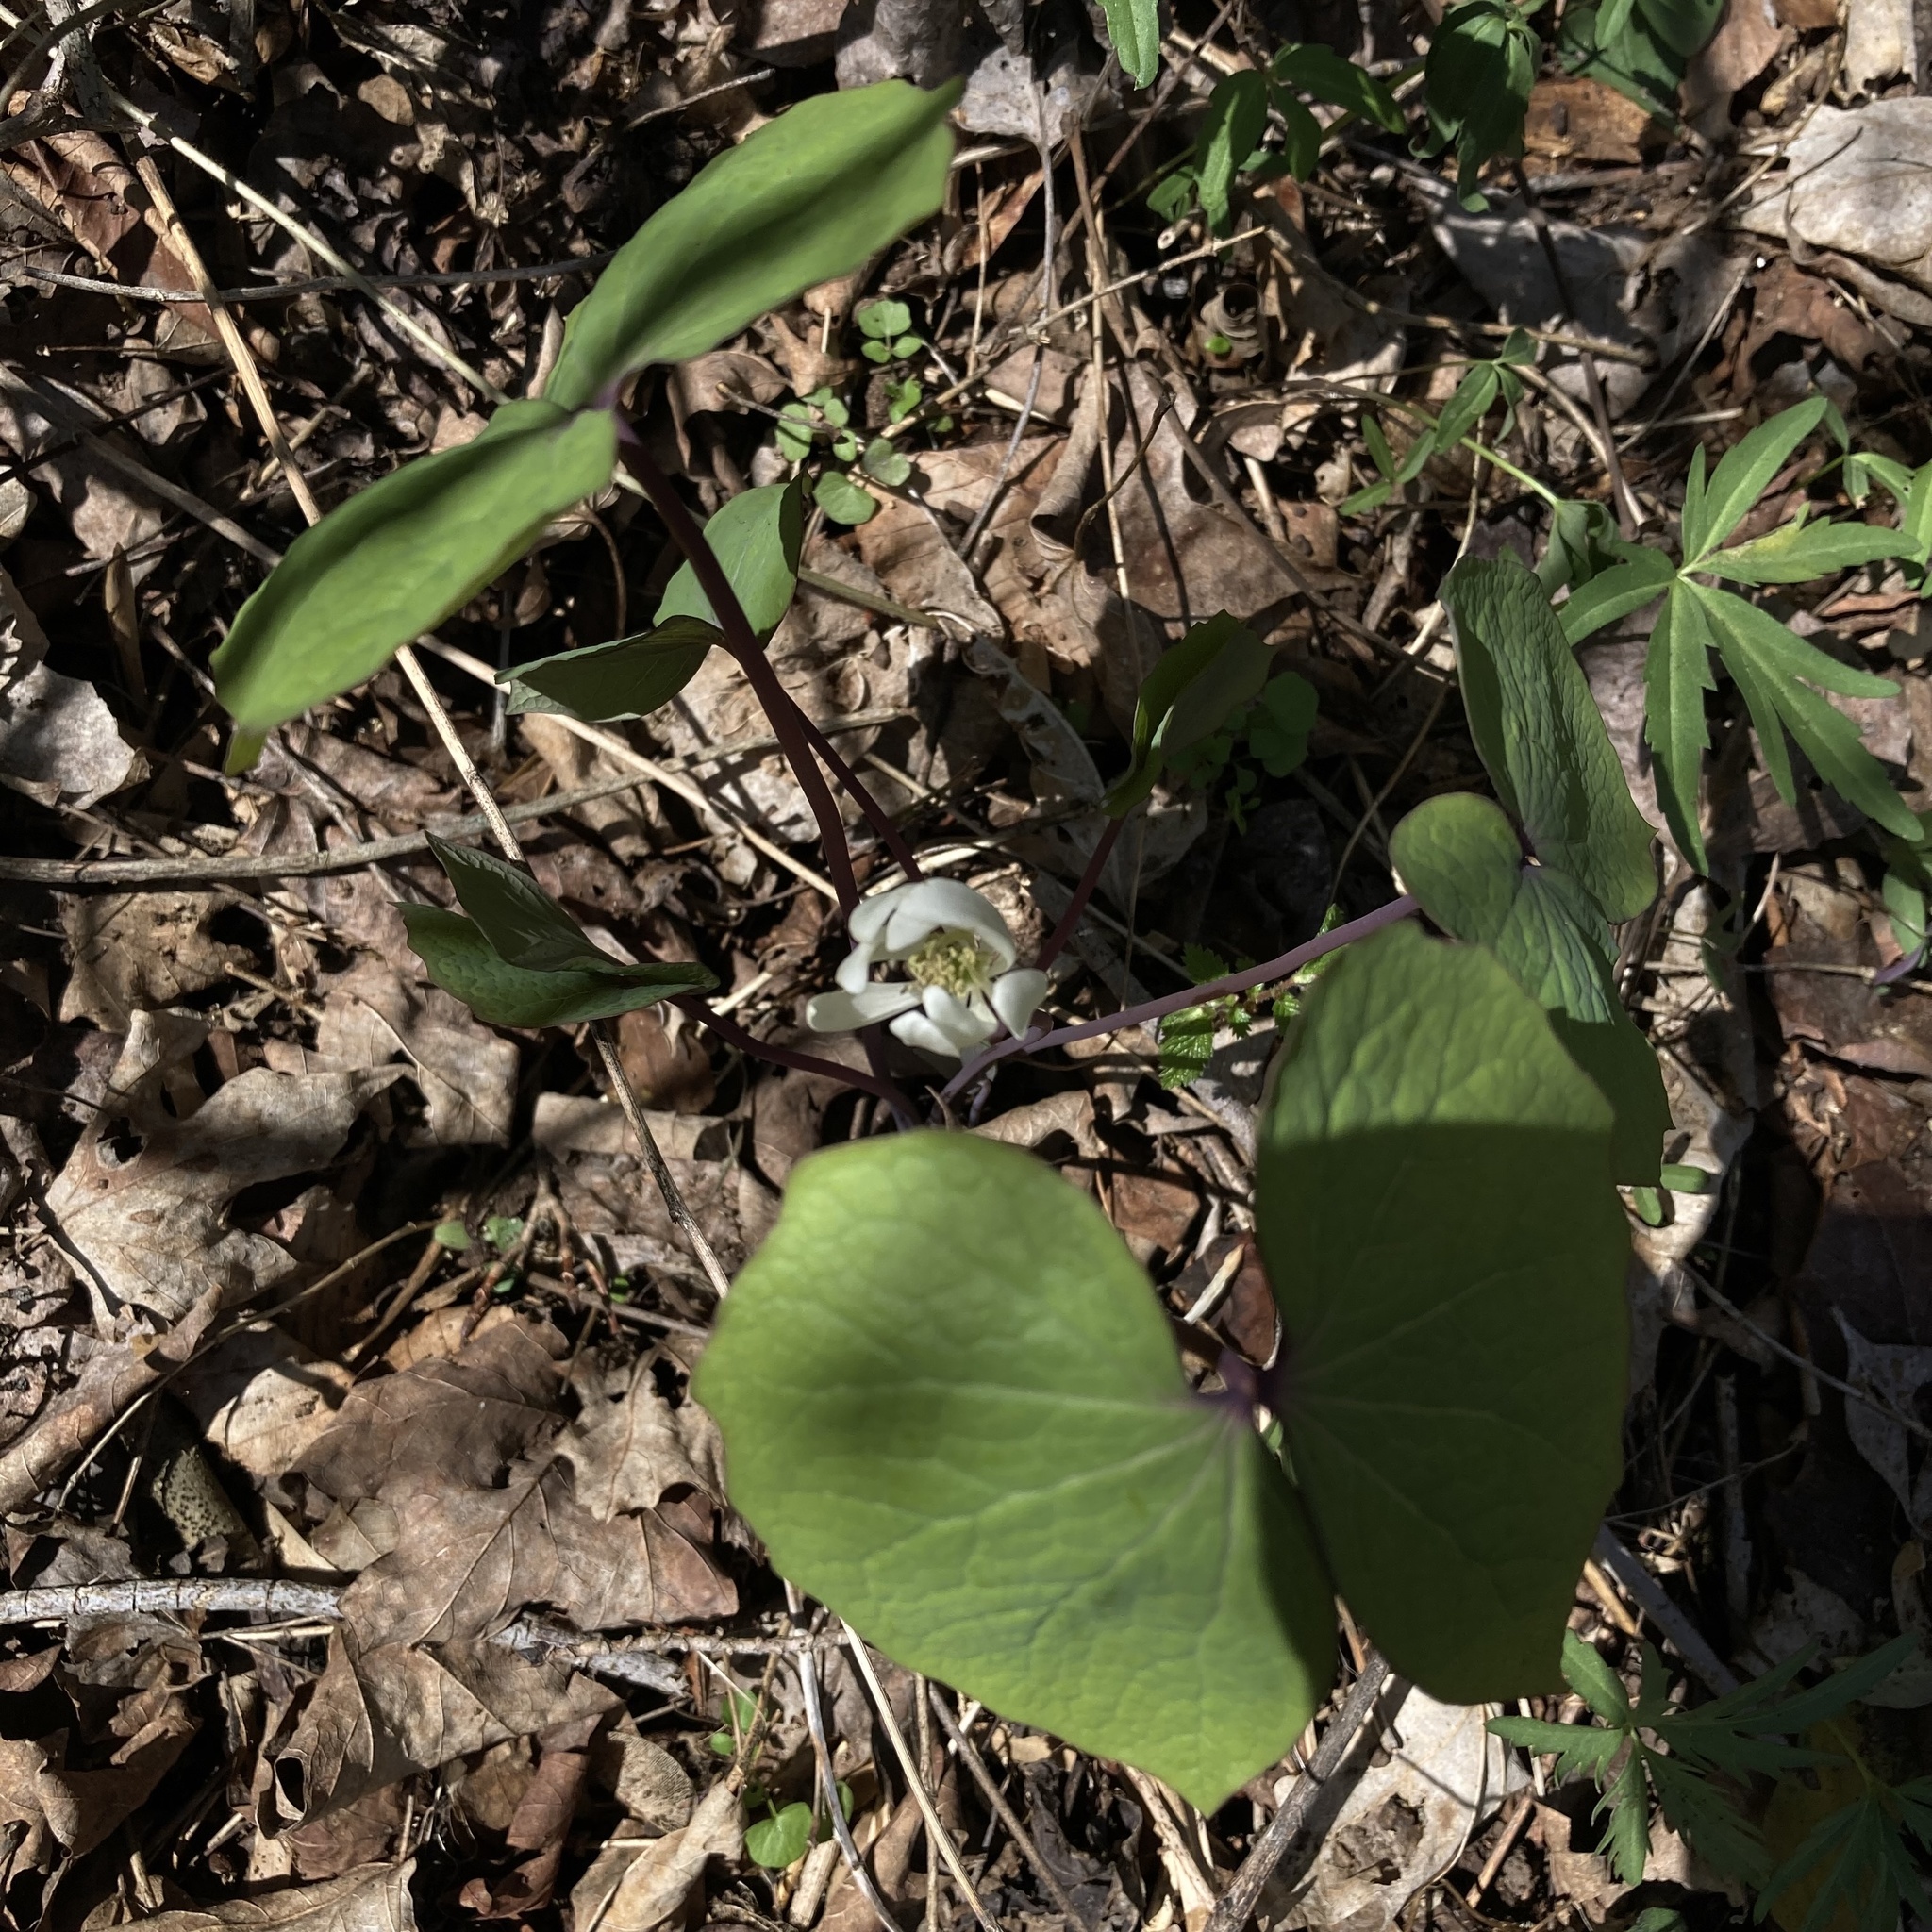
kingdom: Plantae
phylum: Tracheophyta
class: Magnoliopsida
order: Ranunculales
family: Berberidaceae
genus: Jeffersonia
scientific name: Jeffersonia diphylla
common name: Rheumatism-root
